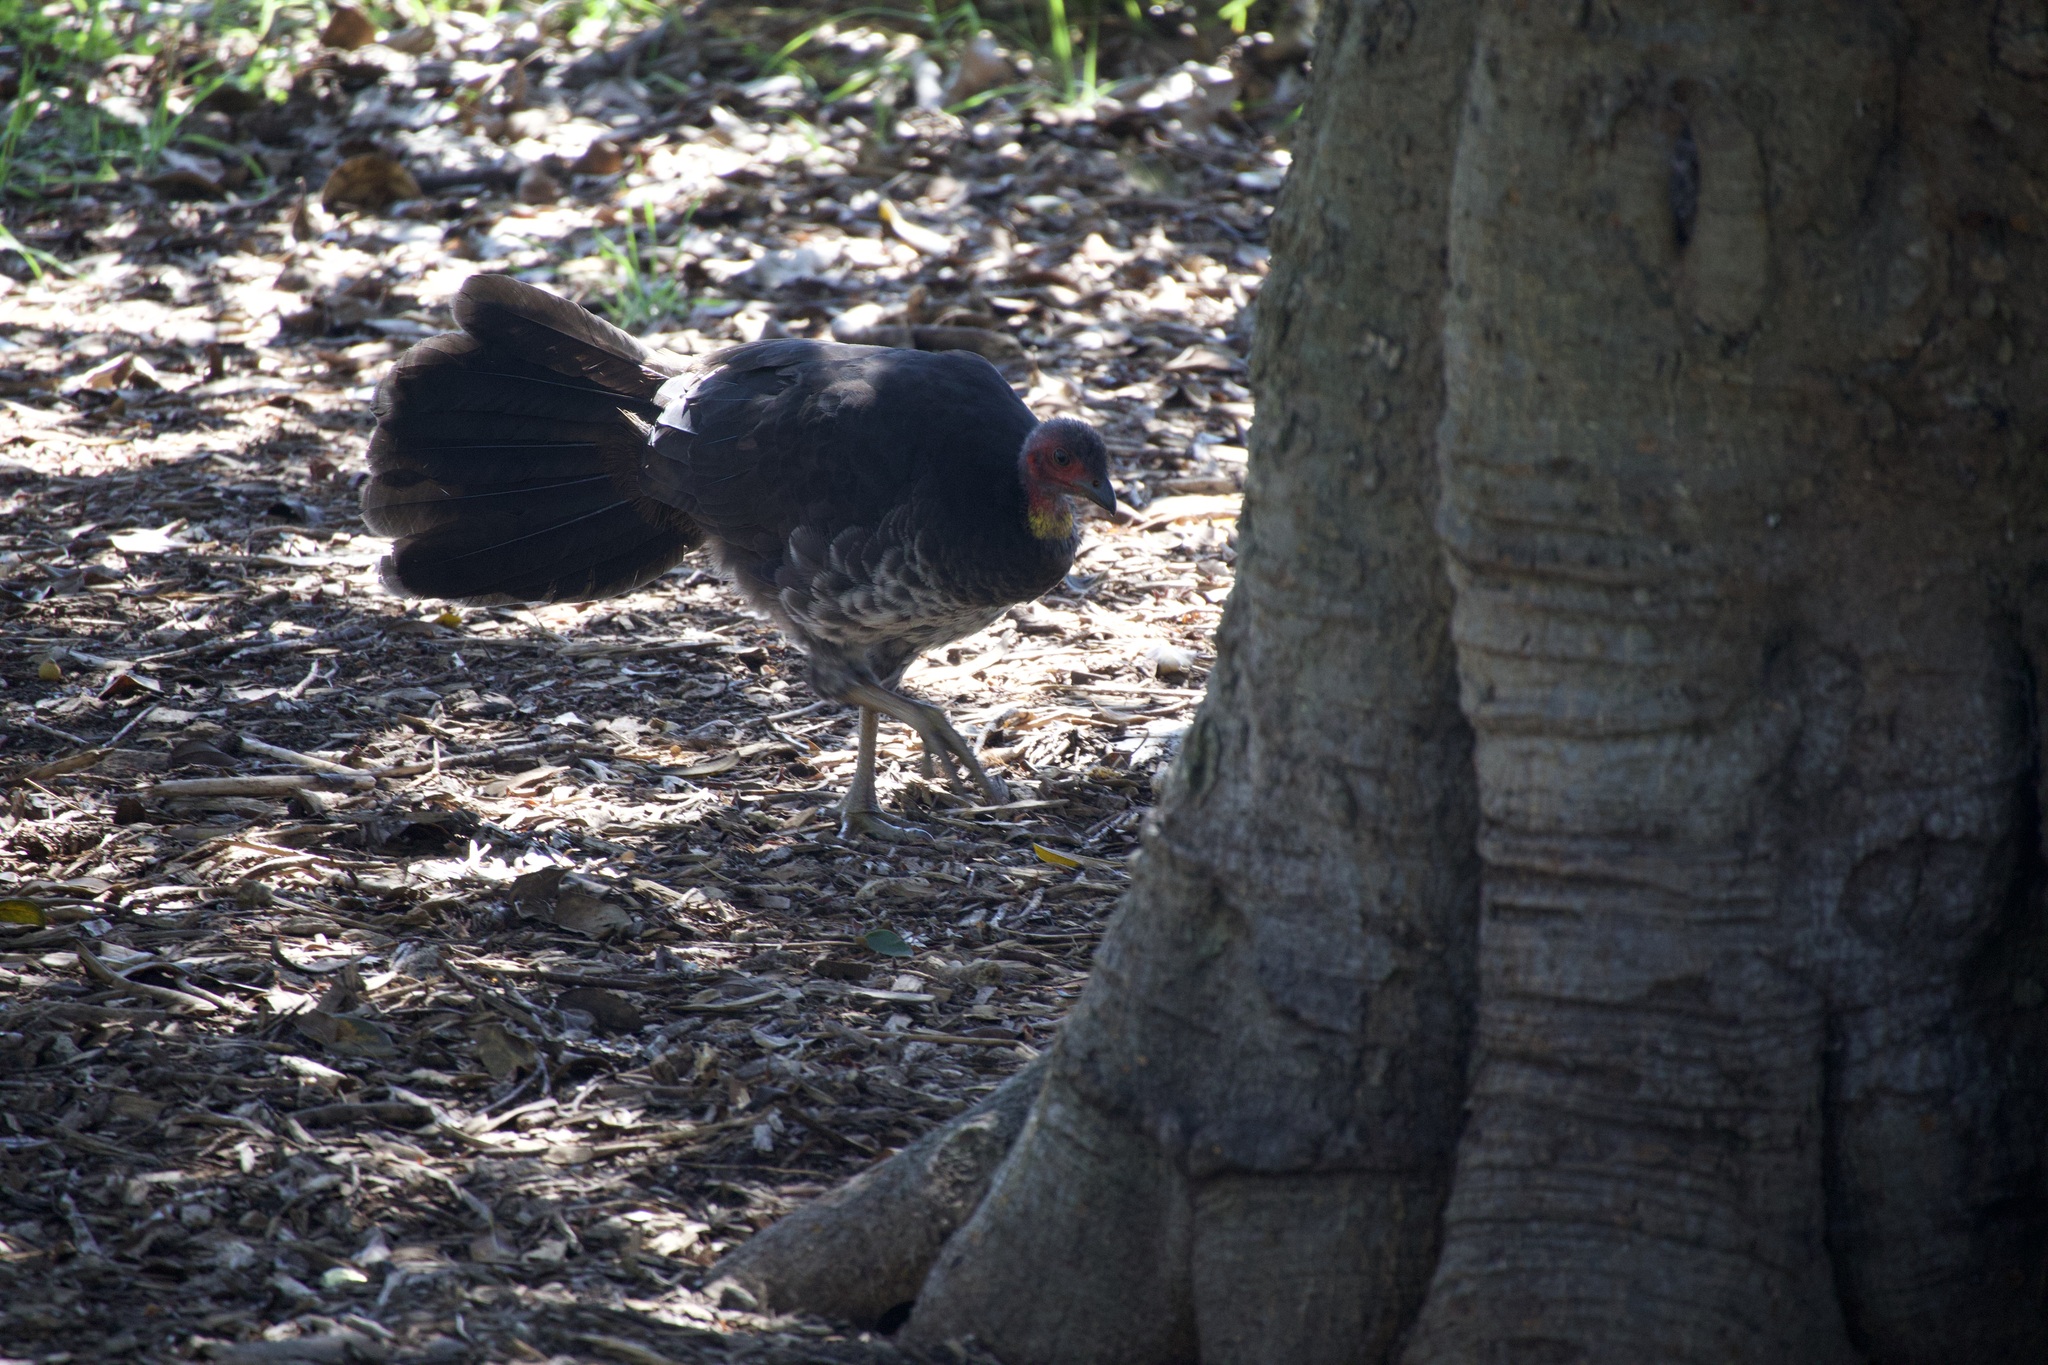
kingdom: Animalia
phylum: Chordata
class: Aves
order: Galliformes
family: Megapodiidae
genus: Alectura
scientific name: Alectura lathami
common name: Australian brushturkey
